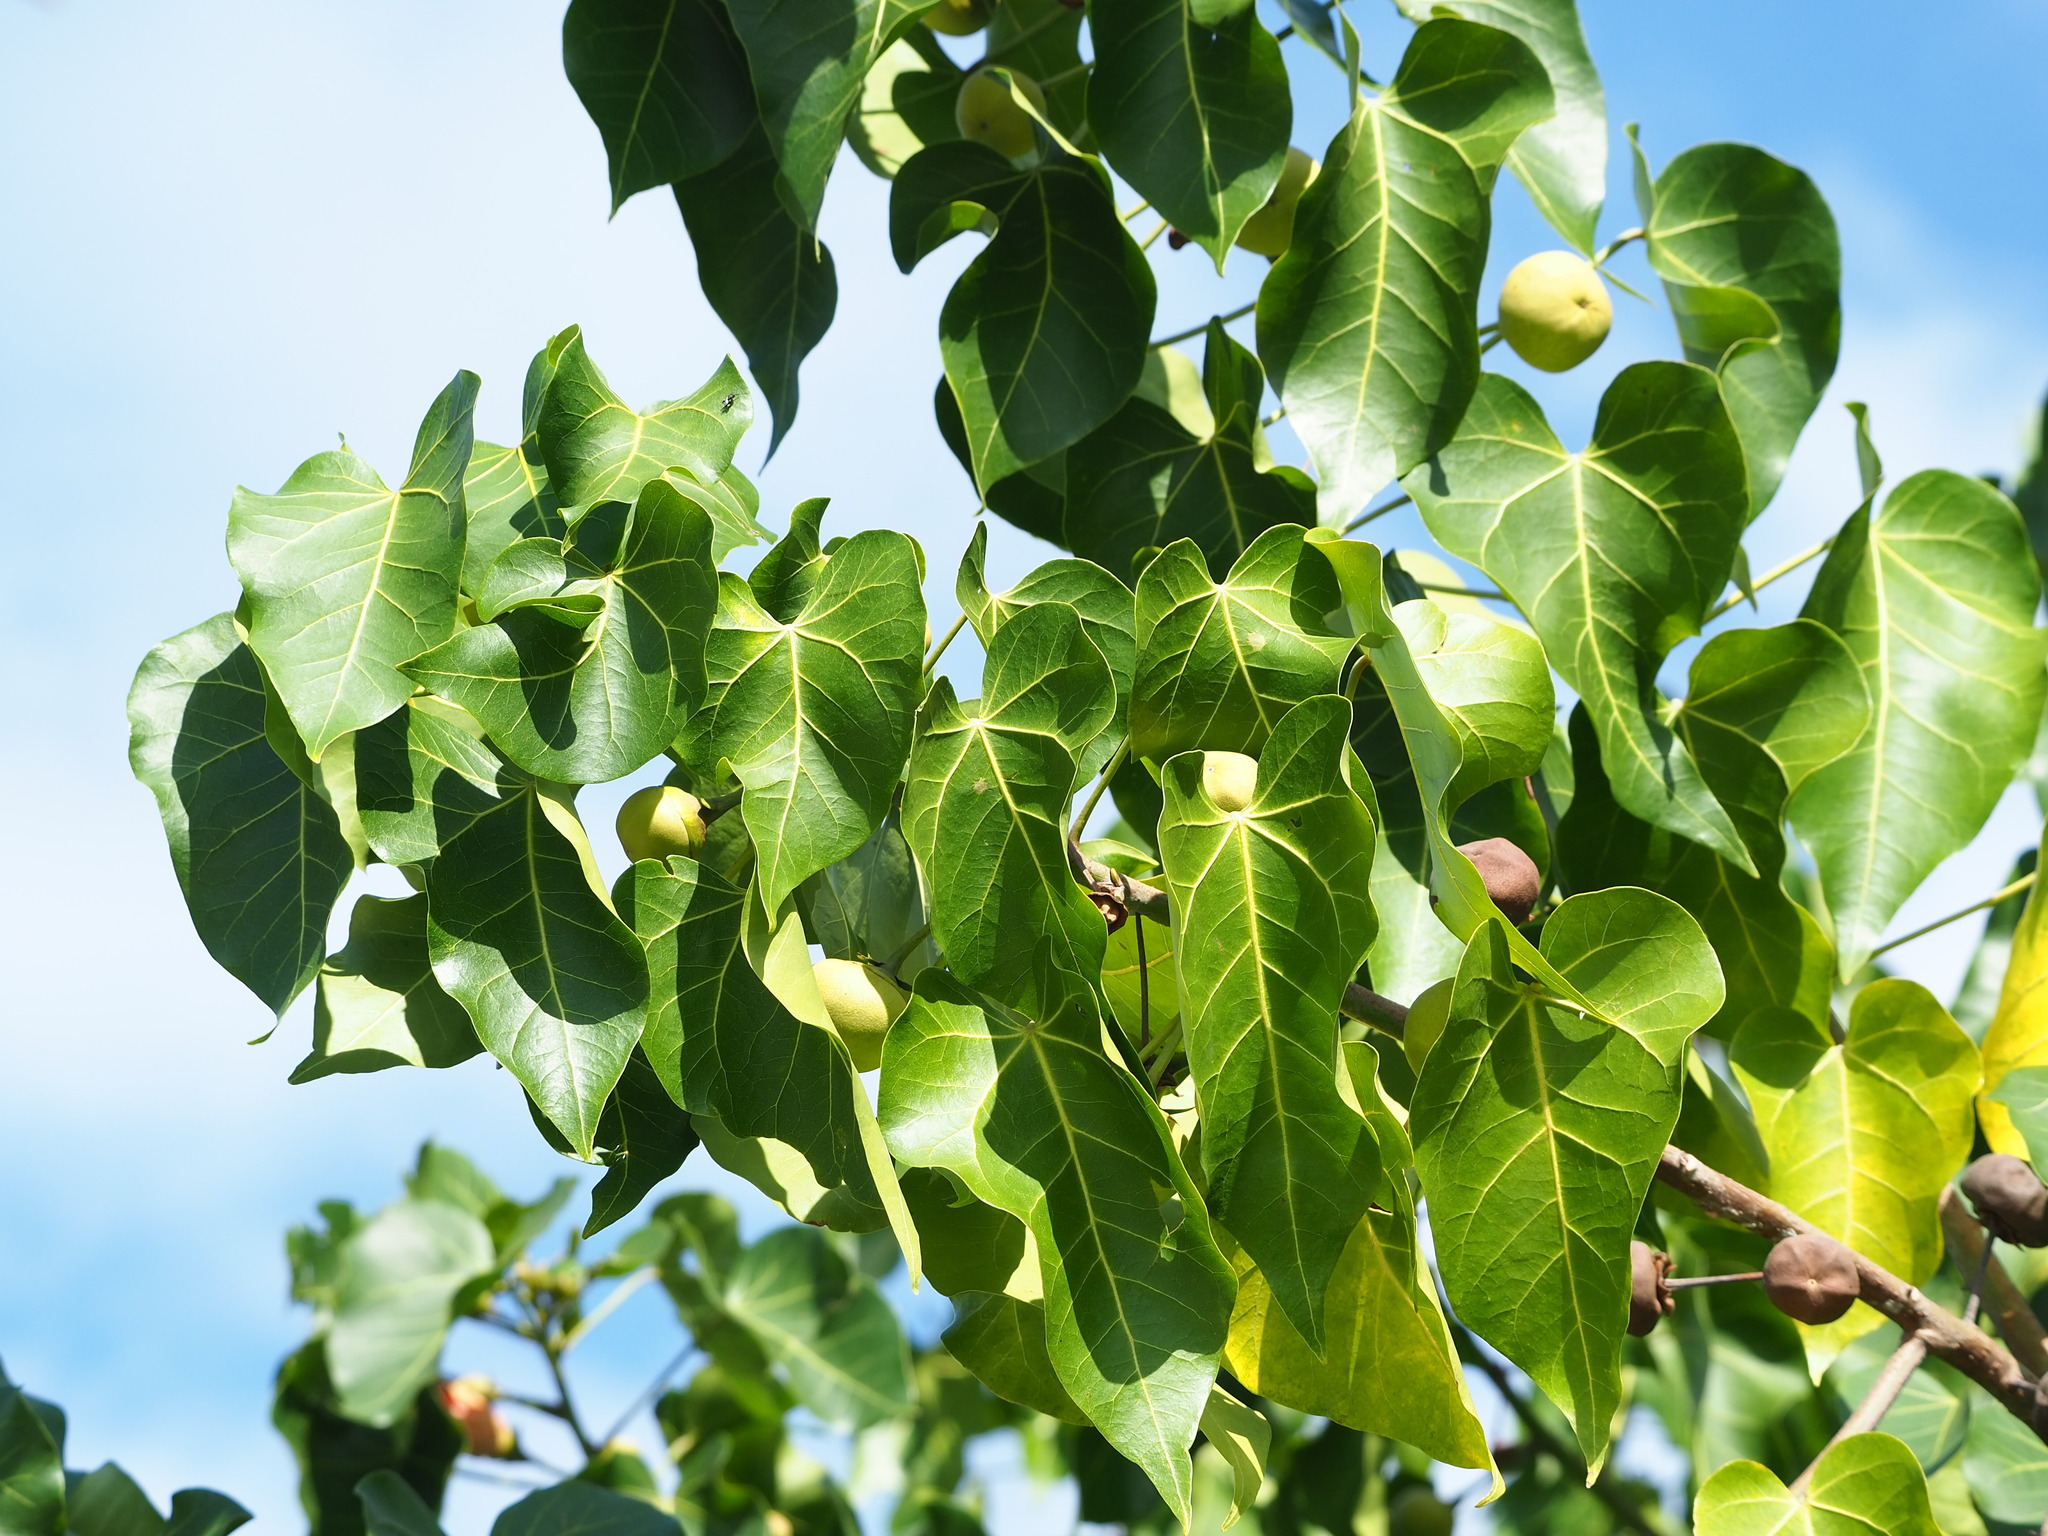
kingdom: Plantae
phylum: Tracheophyta
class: Magnoliopsida
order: Malvales
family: Malvaceae
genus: Thespesia
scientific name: Thespesia populnea
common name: Seaside mahoe
